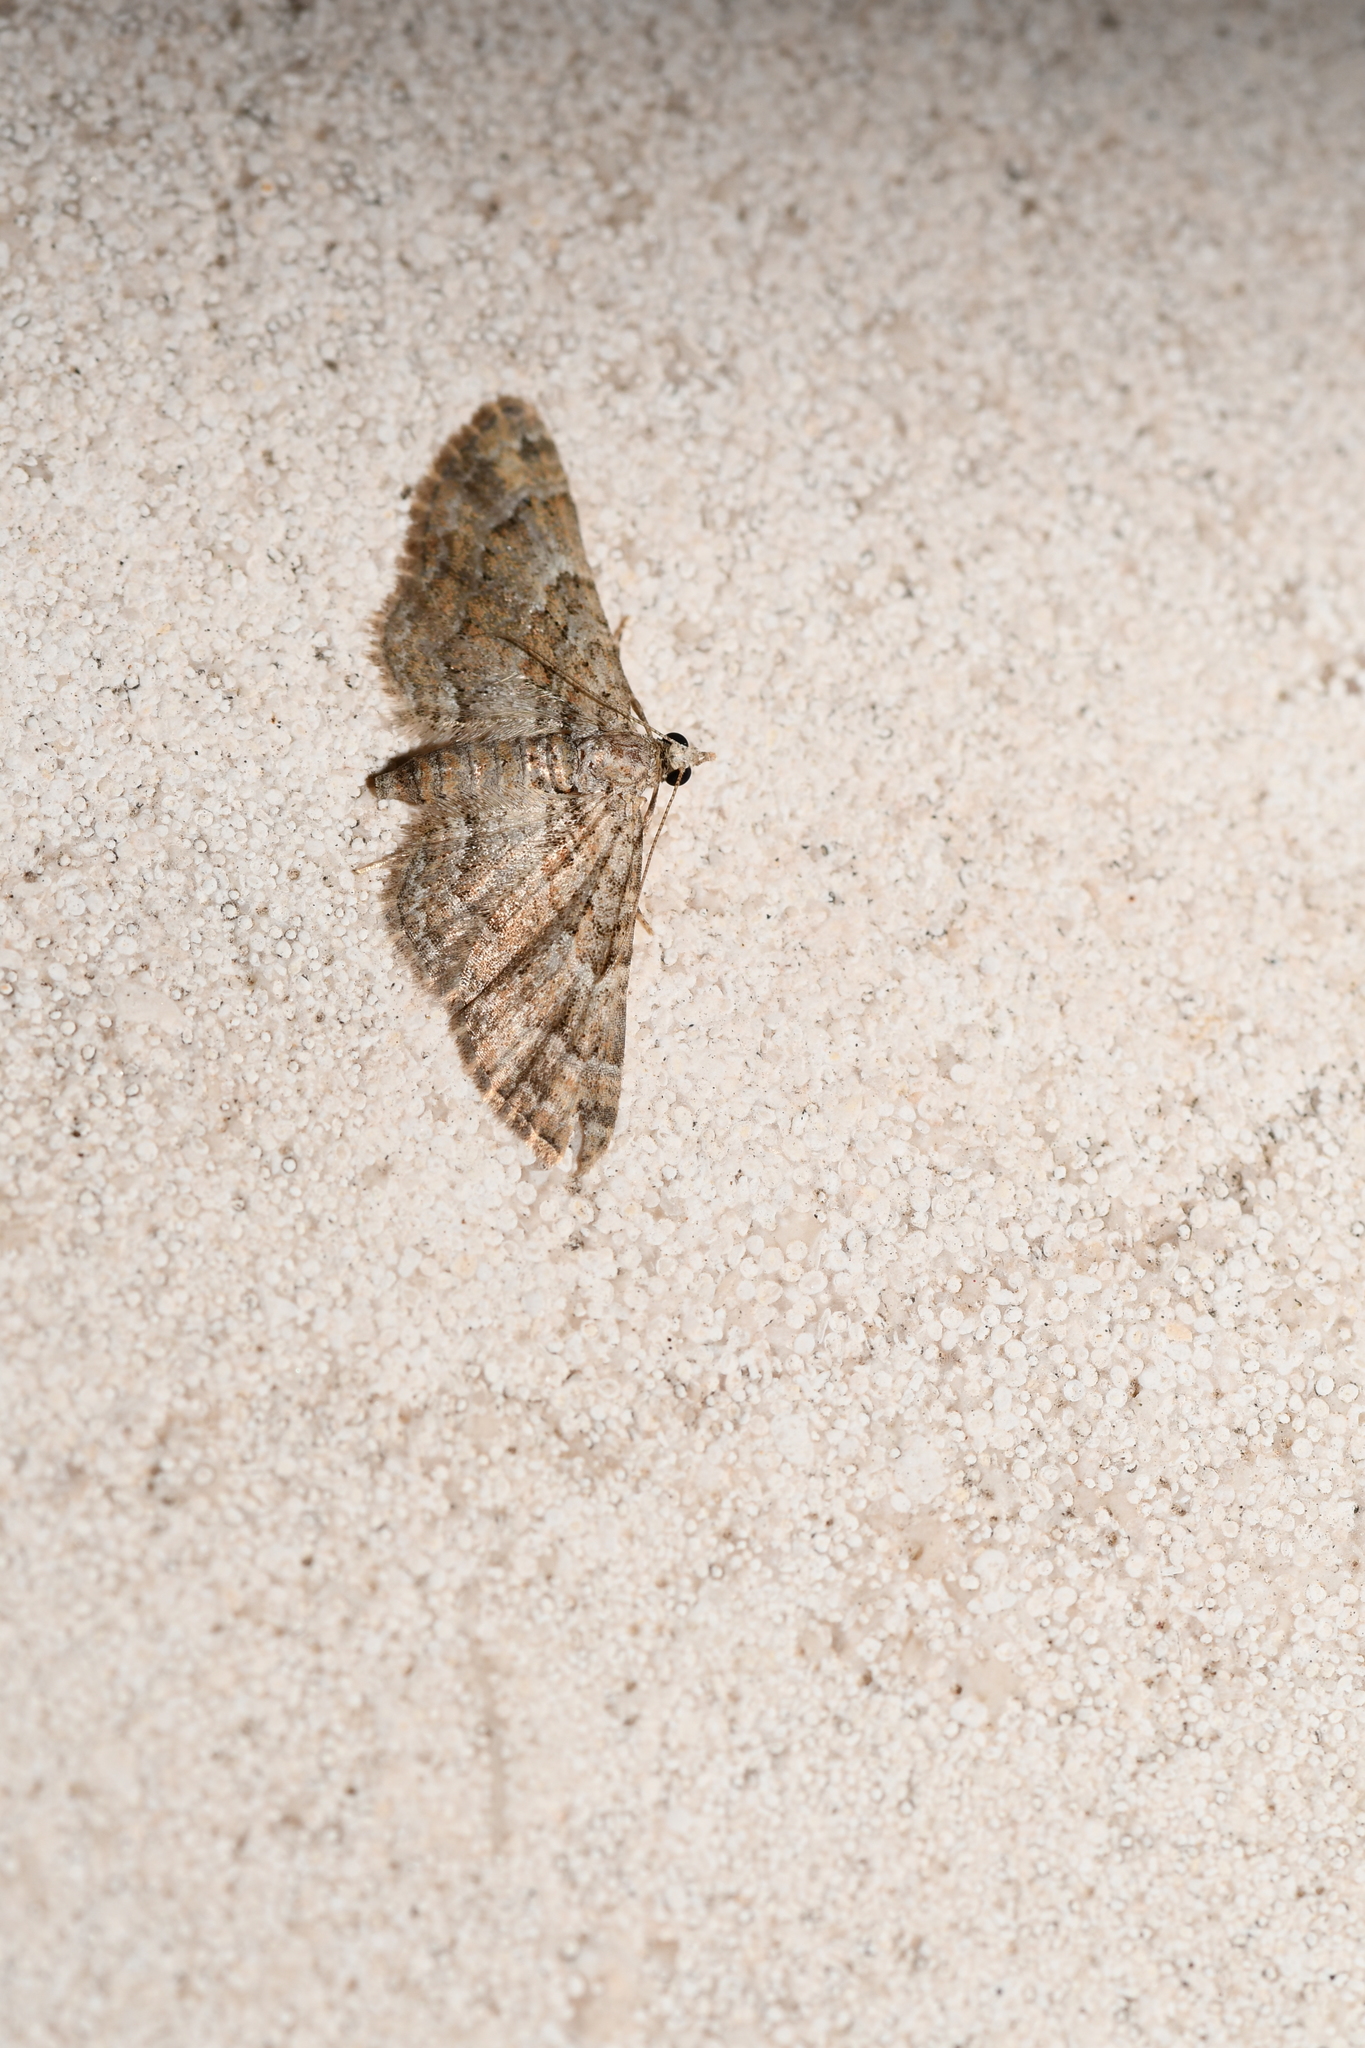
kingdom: Animalia
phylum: Arthropoda
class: Insecta
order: Lepidoptera
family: Geometridae
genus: Gymnoscelis
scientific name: Gymnoscelis rufifasciata
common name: Double-striped pug
